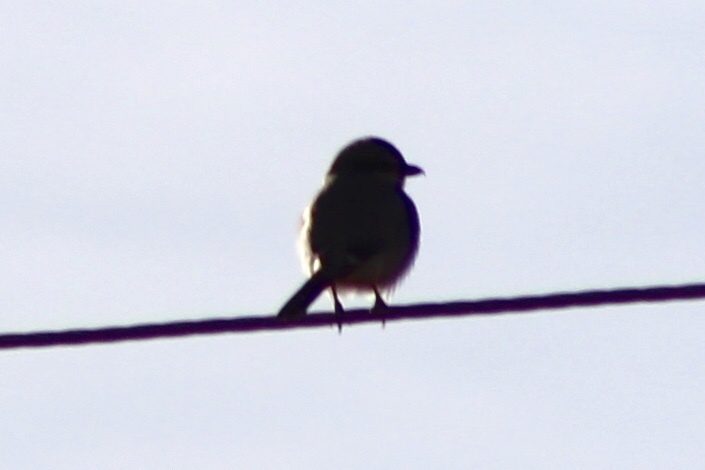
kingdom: Animalia
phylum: Chordata
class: Aves
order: Passeriformes
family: Laniidae
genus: Lanius
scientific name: Lanius ludovicianus
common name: Loggerhead shrike
